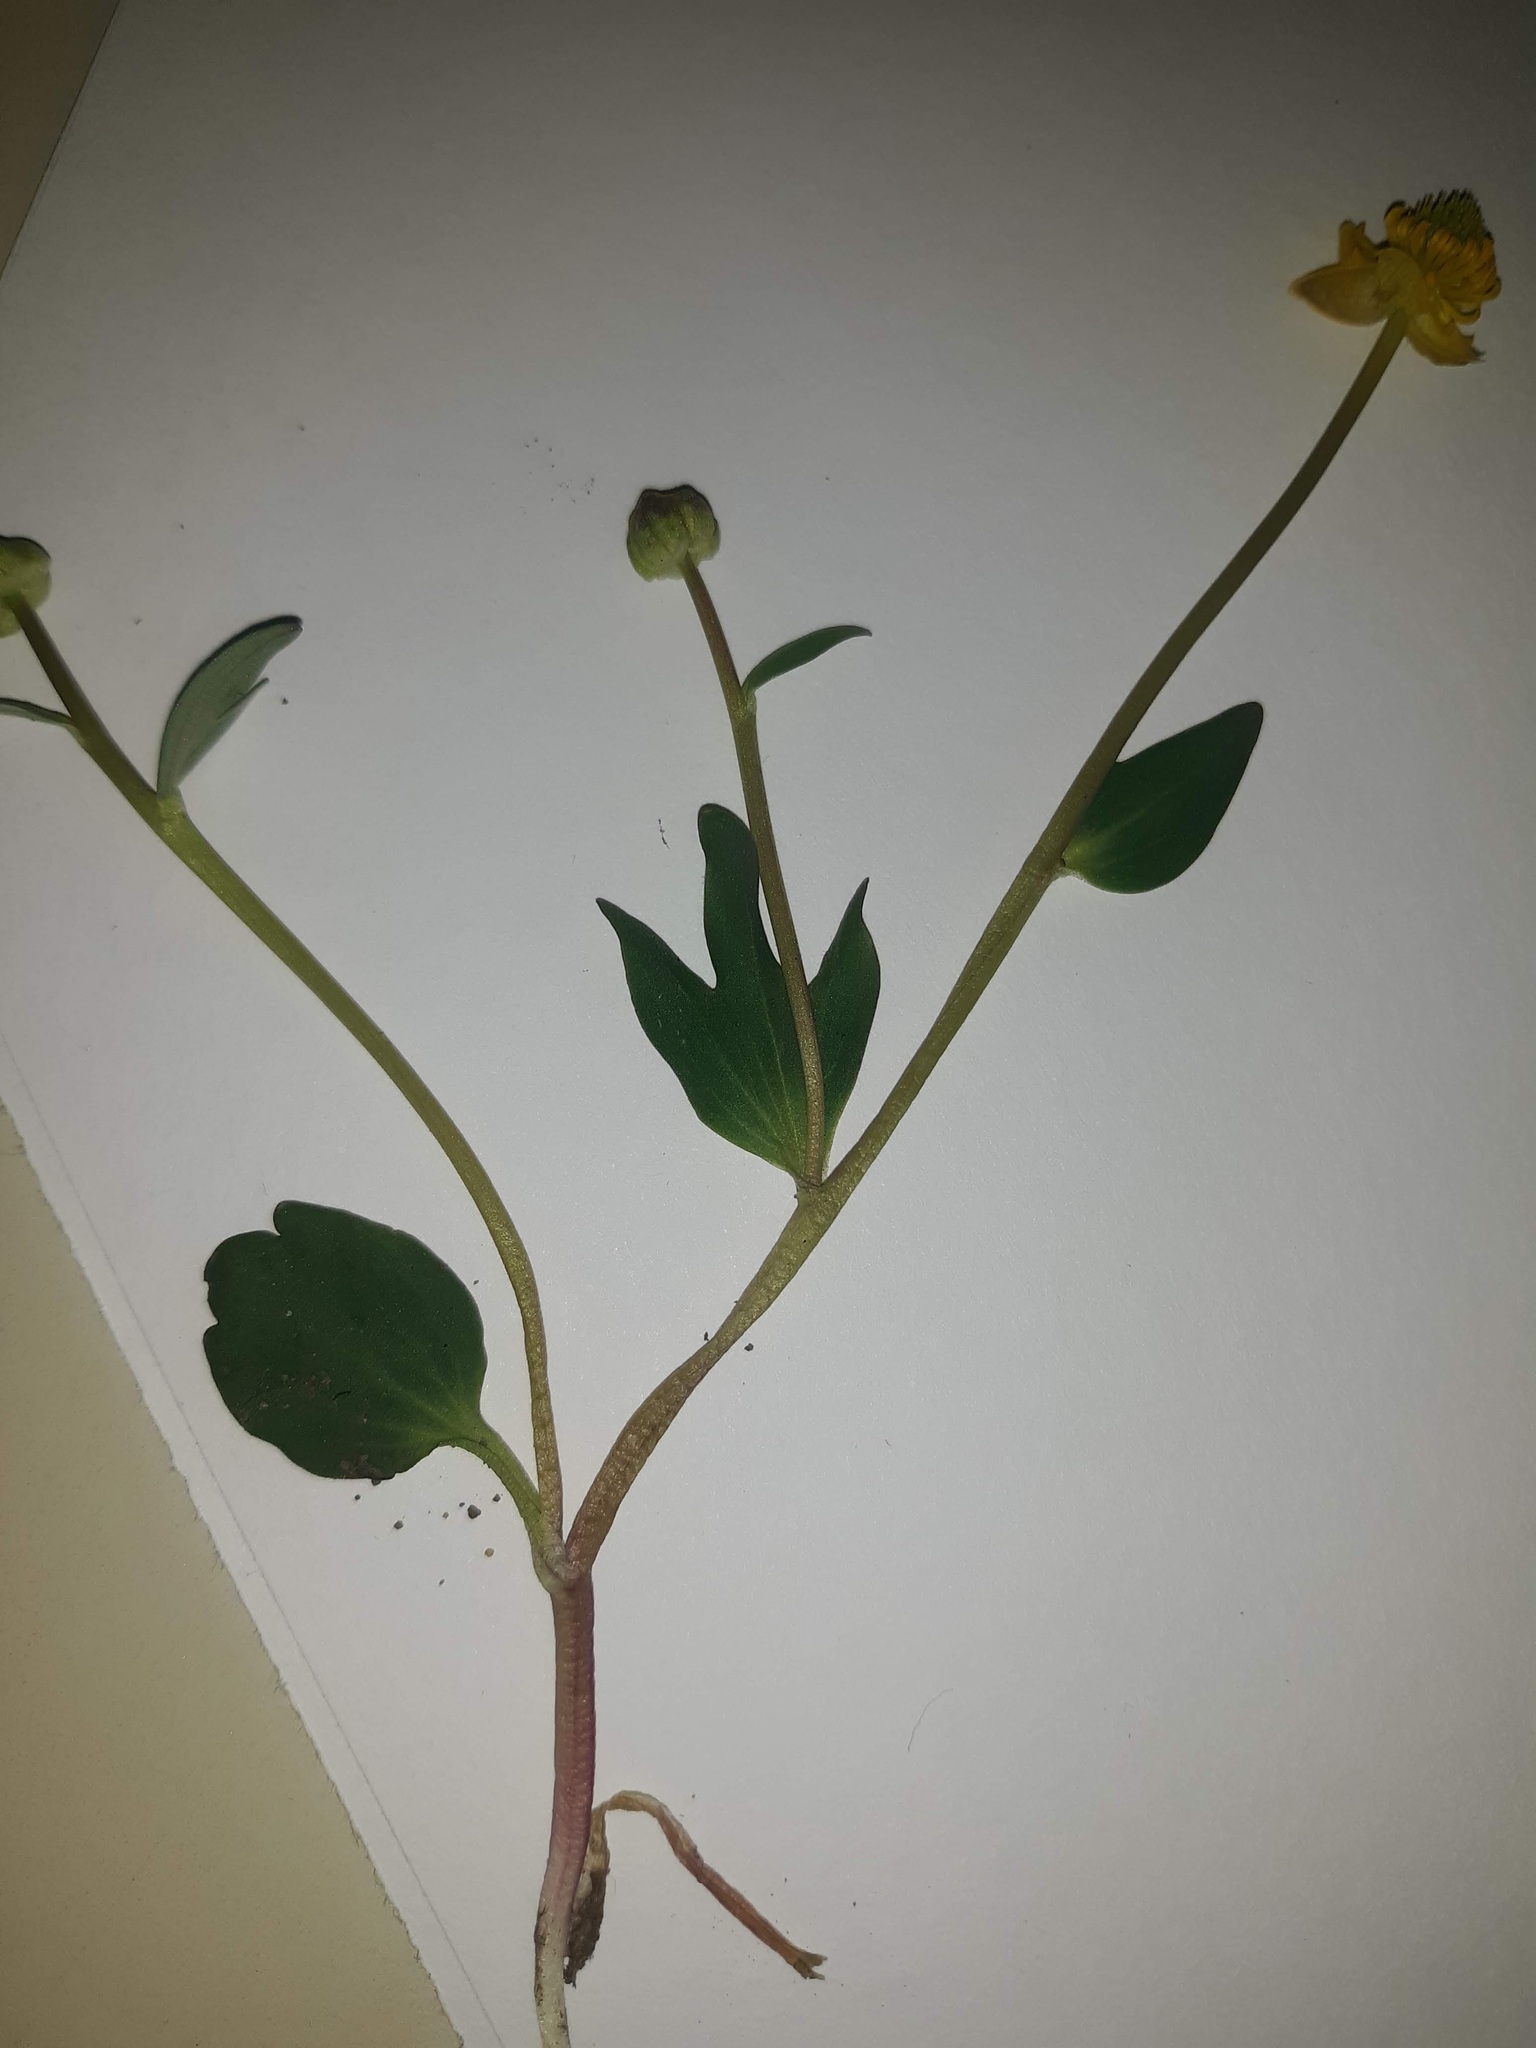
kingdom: Plantae
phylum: Tracheophyta
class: Magnoliopsida
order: Ranunculales
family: Ranunculaceae
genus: Ranunculus
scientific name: Ranunculus glaberrimus
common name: Sagebrush buttercup
